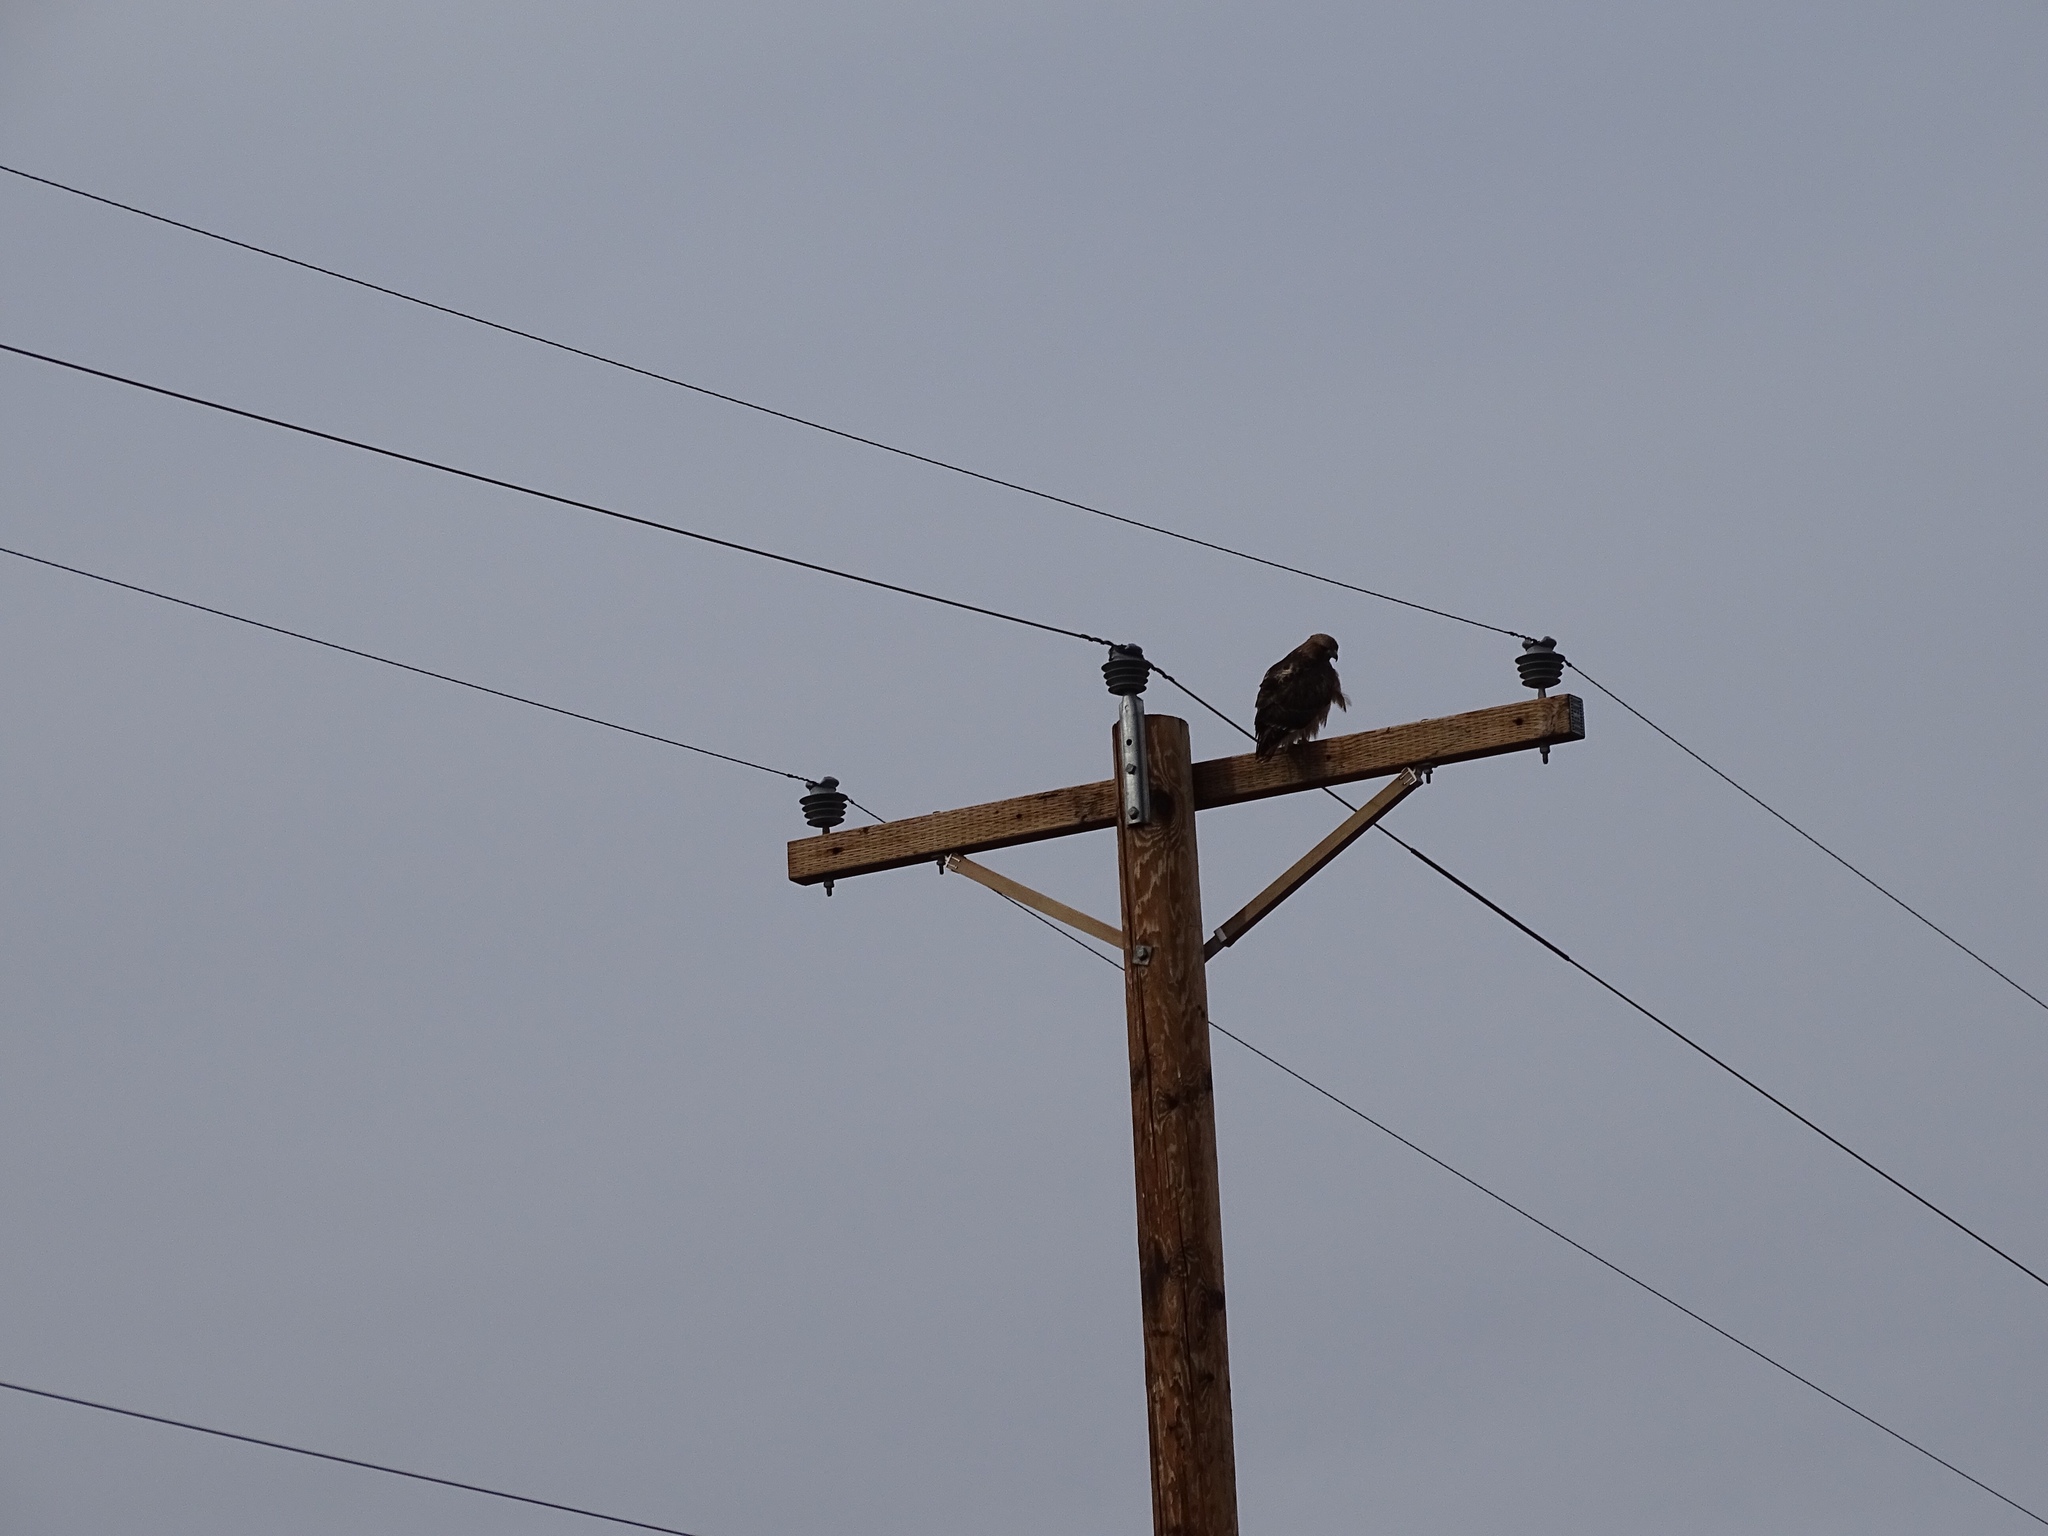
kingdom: Animalia
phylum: Chordata
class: Aves
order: Accipitriformes
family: Accipitridae
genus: Buteo
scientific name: Buteo jamaicensis
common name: Red-tailed hawk
